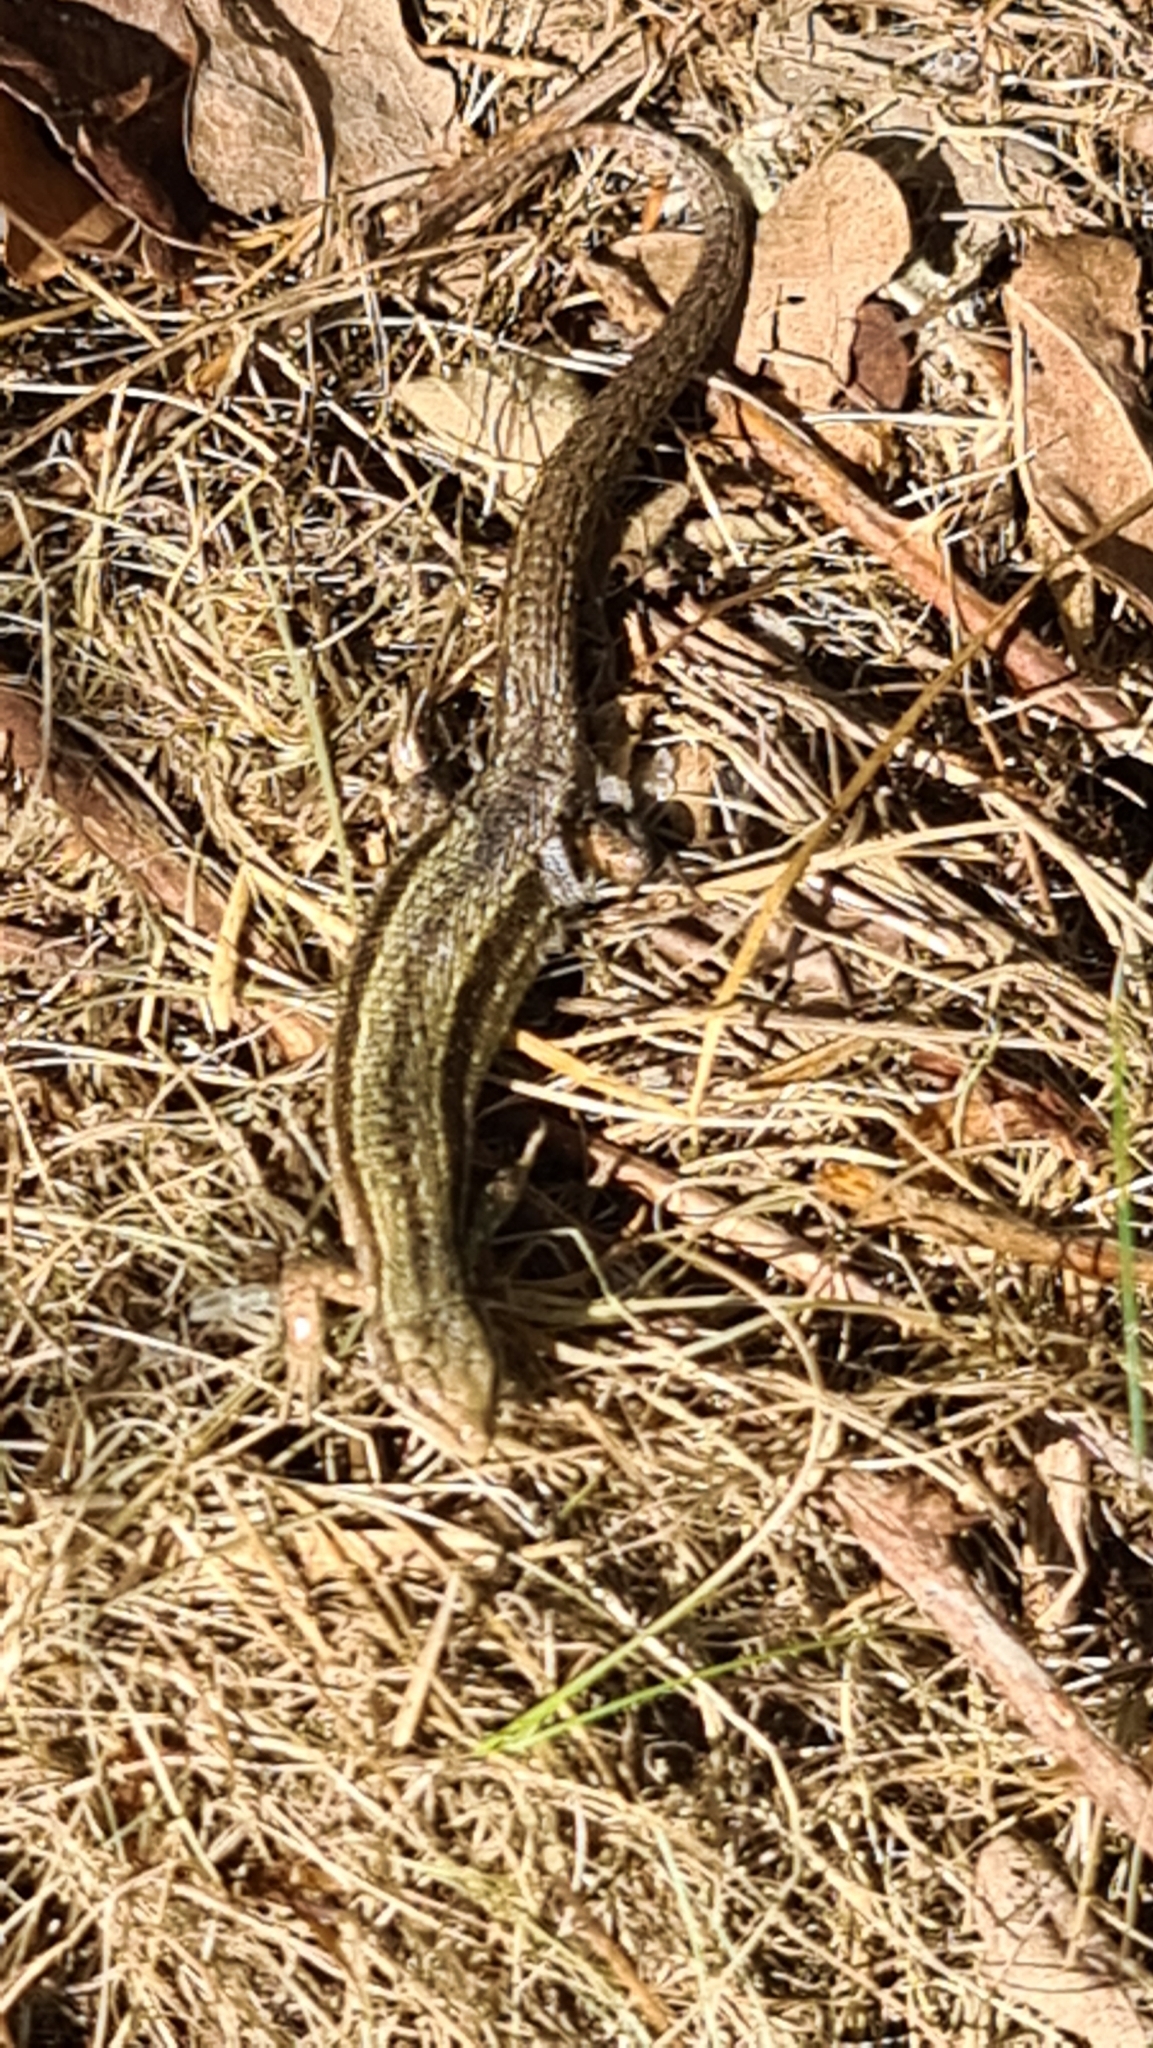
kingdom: Animalia
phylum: Chordata
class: Squamata
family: Lacertidae
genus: Zootoca
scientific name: Zootoca vivipara
